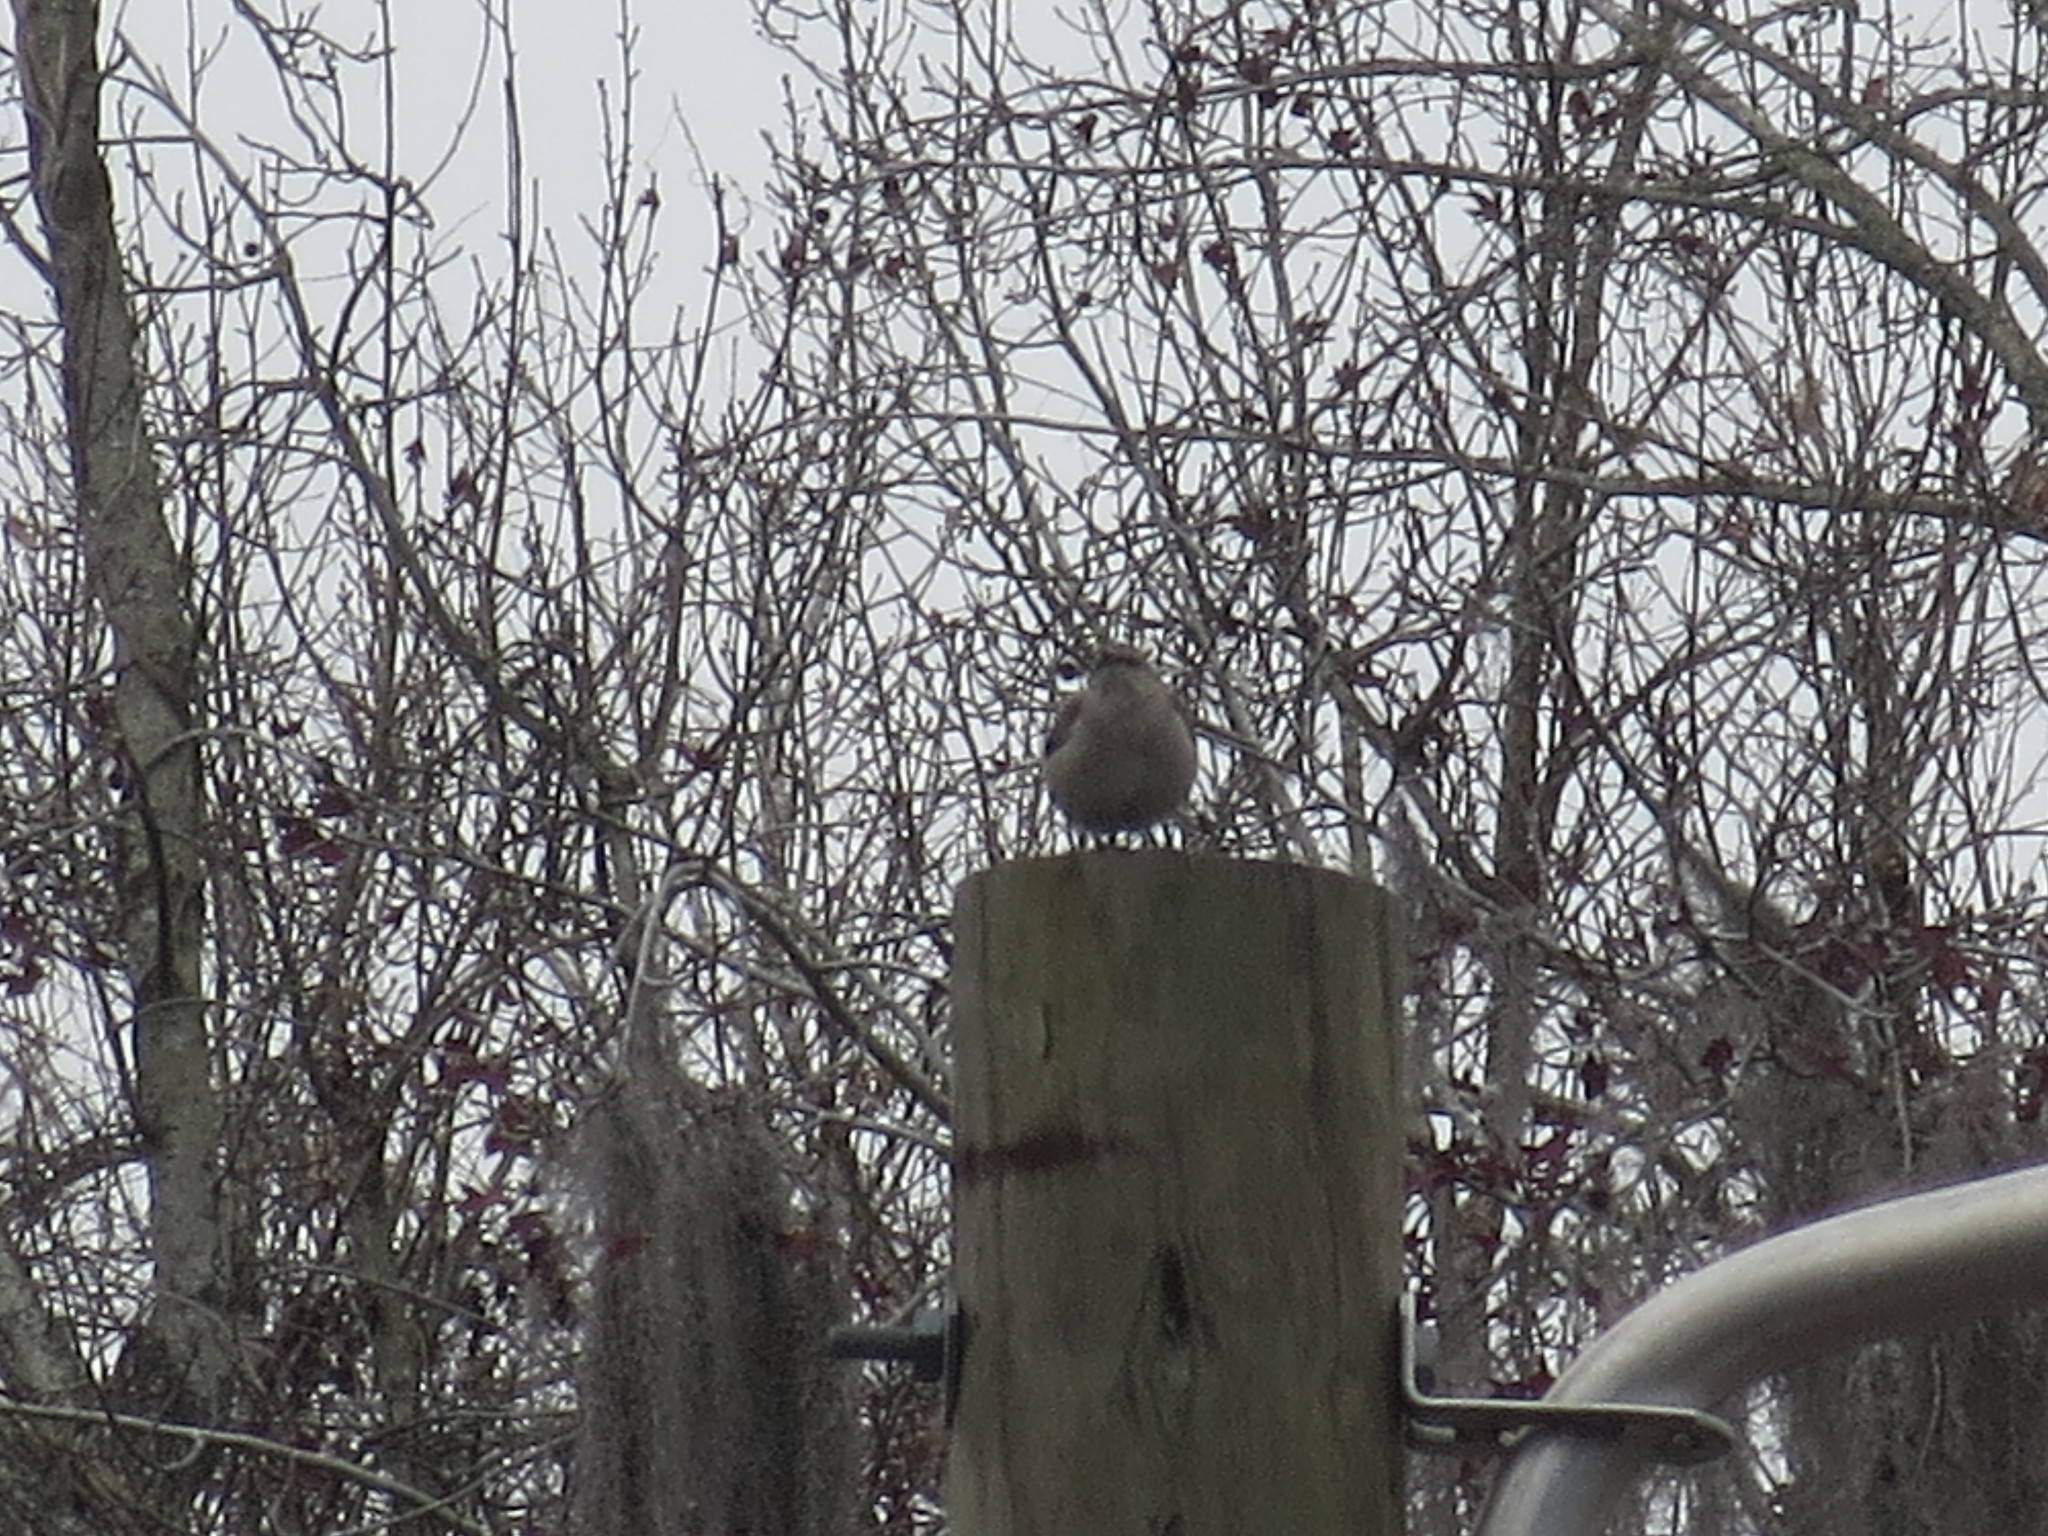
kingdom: Animalia
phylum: Chordata
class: Aves
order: Passeriformes
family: Mimidae
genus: Mimus
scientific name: Mimus polyglottos
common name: Northern mockingbird
